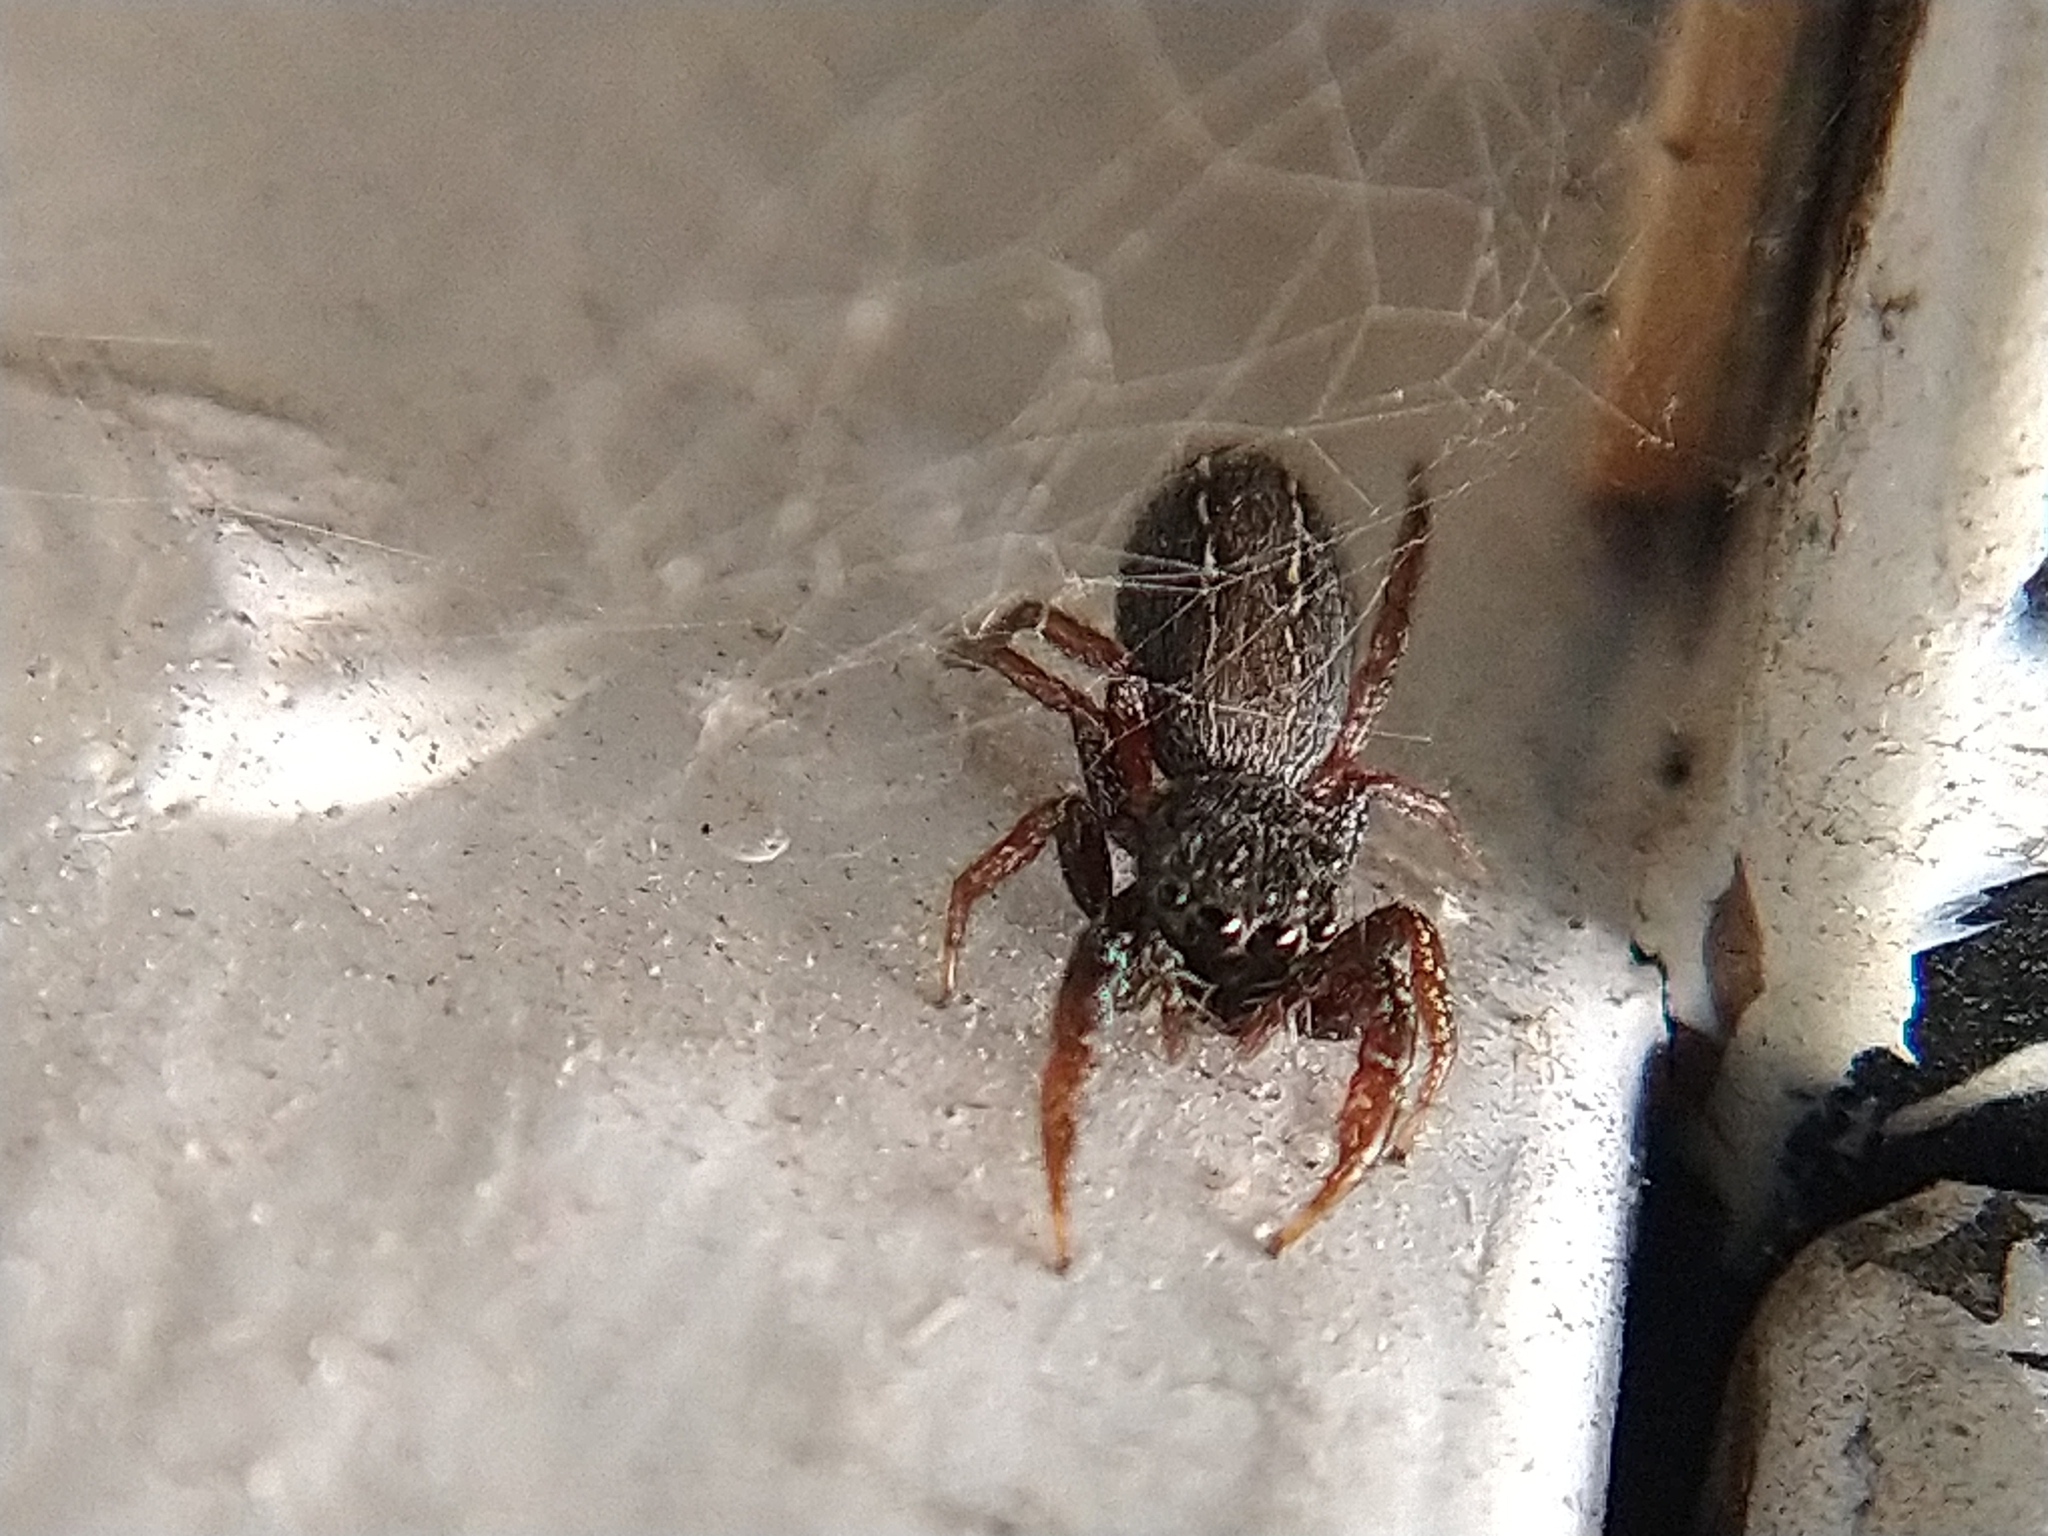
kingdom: Animalia
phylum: Arthropoda
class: Arachnida
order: Araneae
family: Salticidae
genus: Metacyrba
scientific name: Metacyrba taeniola
